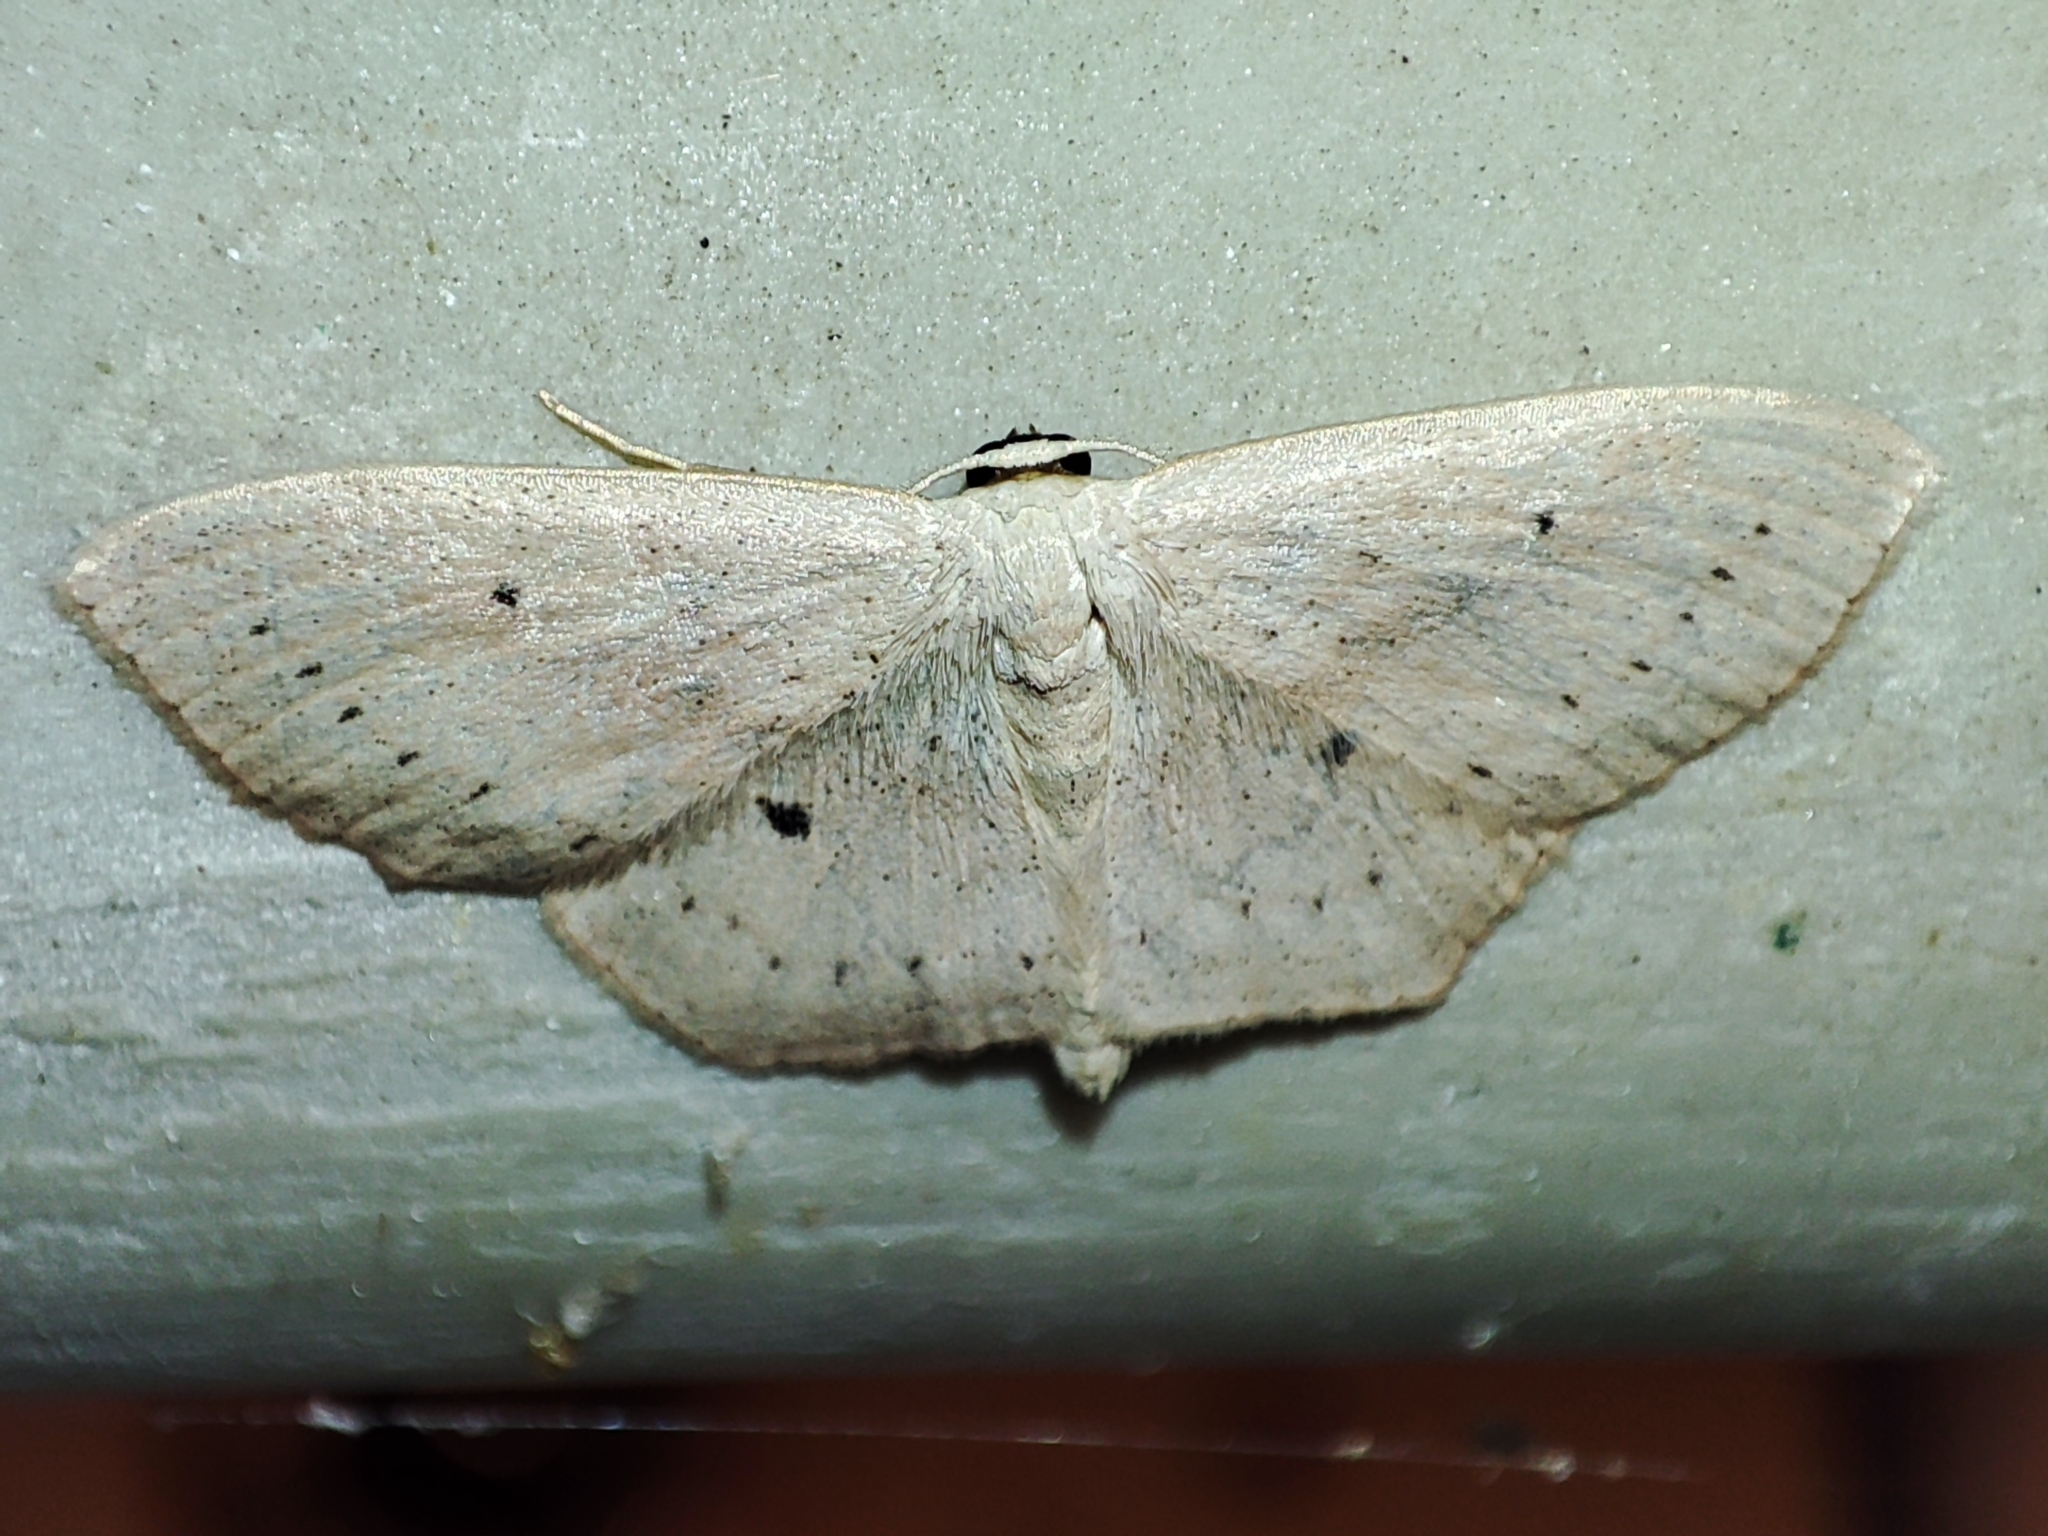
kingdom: Animalia
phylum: Arthropoda
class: Insecta
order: Lepidoptera
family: Geometridae
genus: Scopula
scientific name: Scopula flaccidaria
